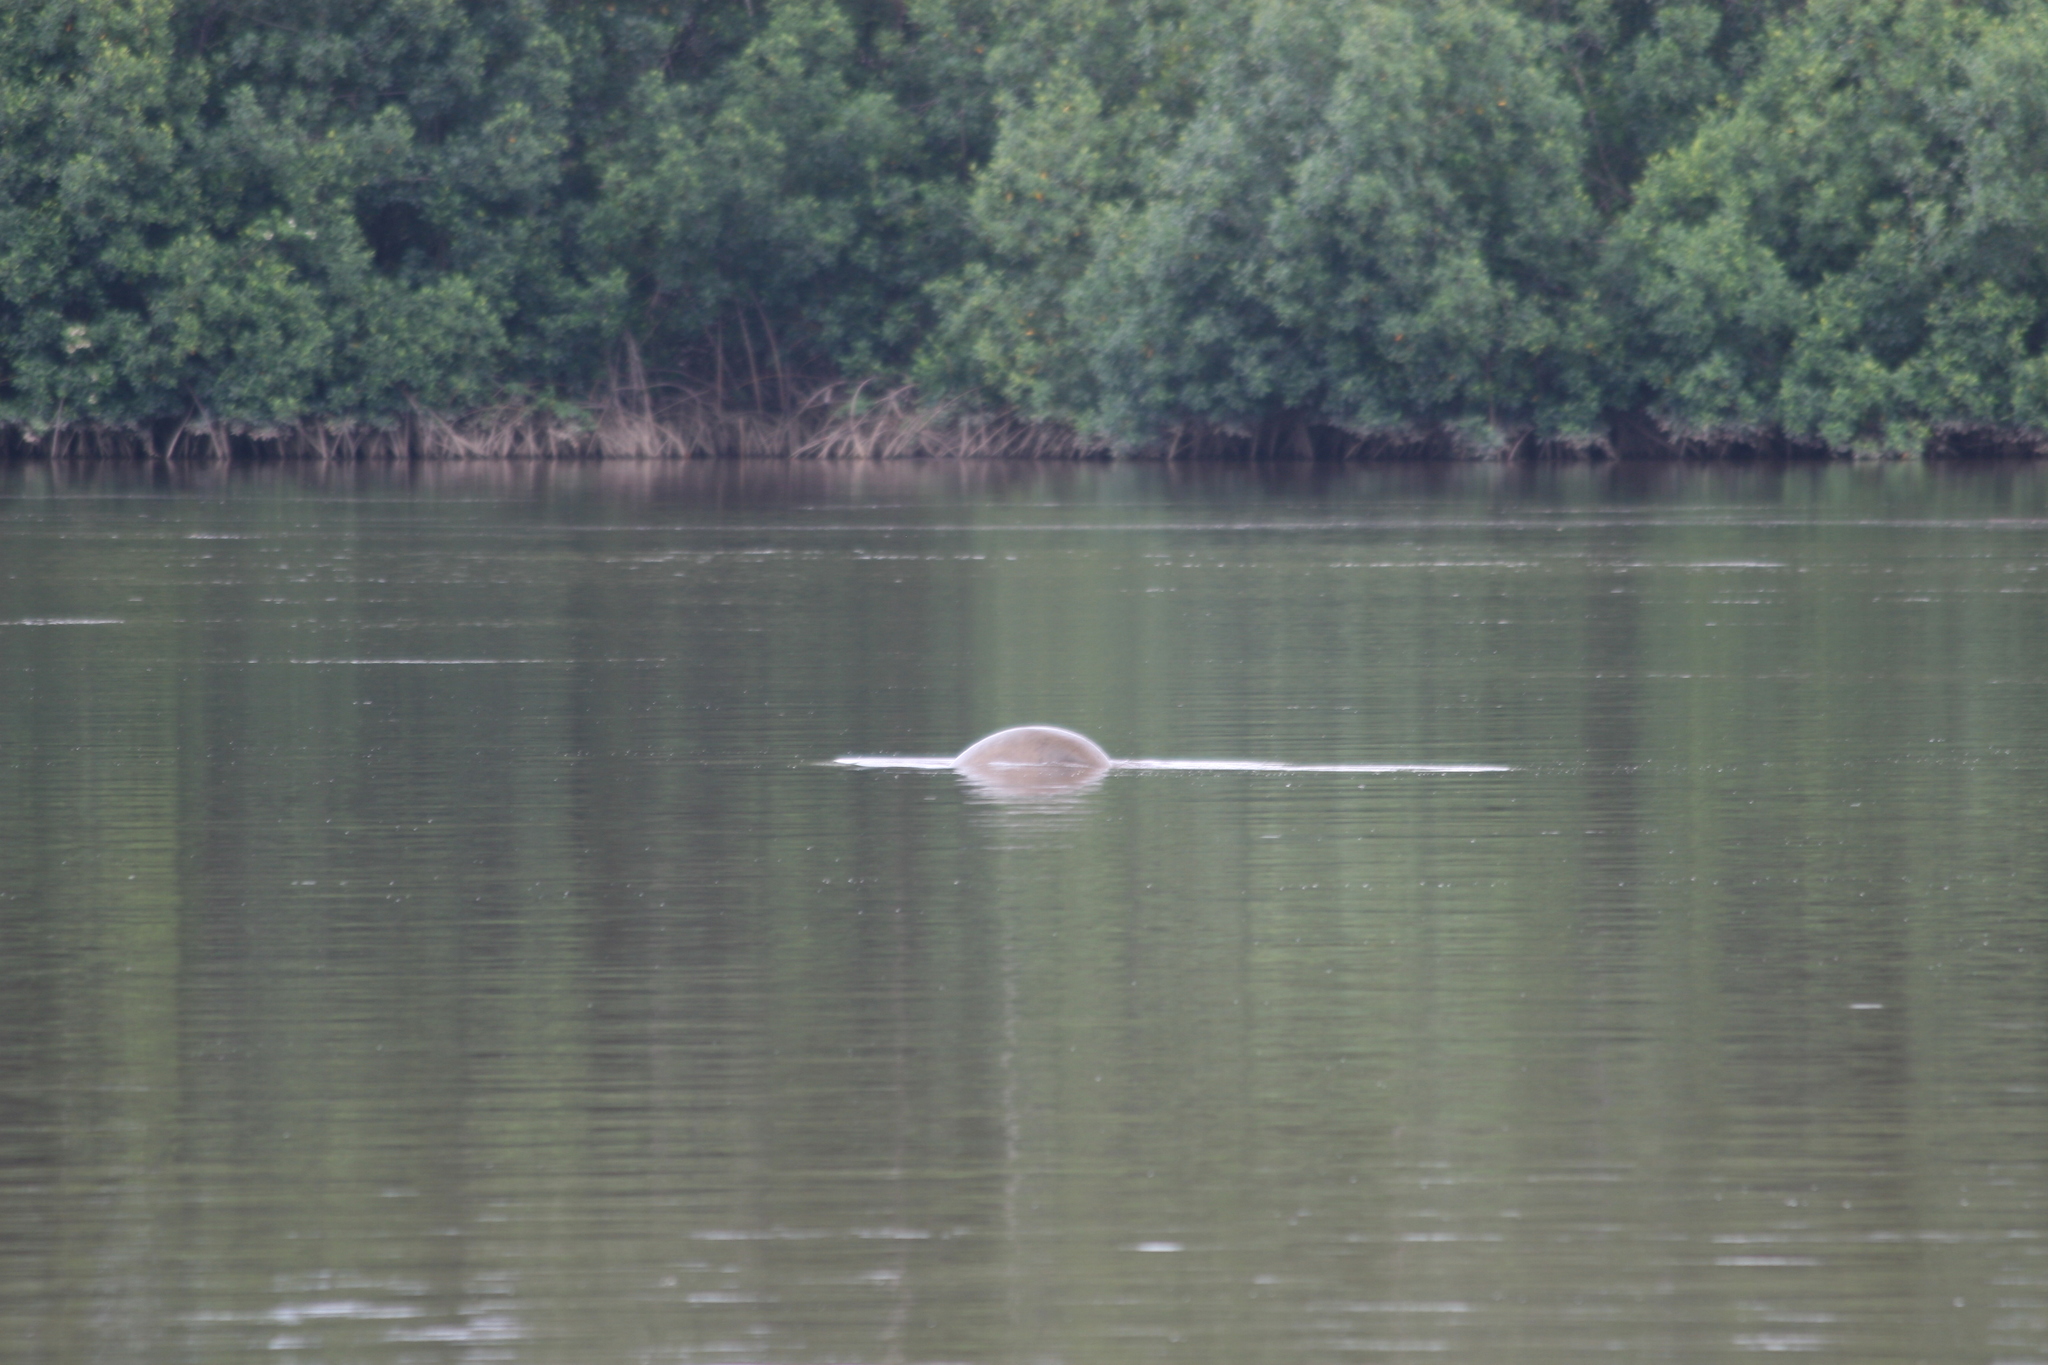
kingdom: Animalia
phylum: Chordata
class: Mammalia
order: Sirenia
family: Trichechidae
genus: Trichechus
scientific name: Trichechus senegalensis
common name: West african manatee
